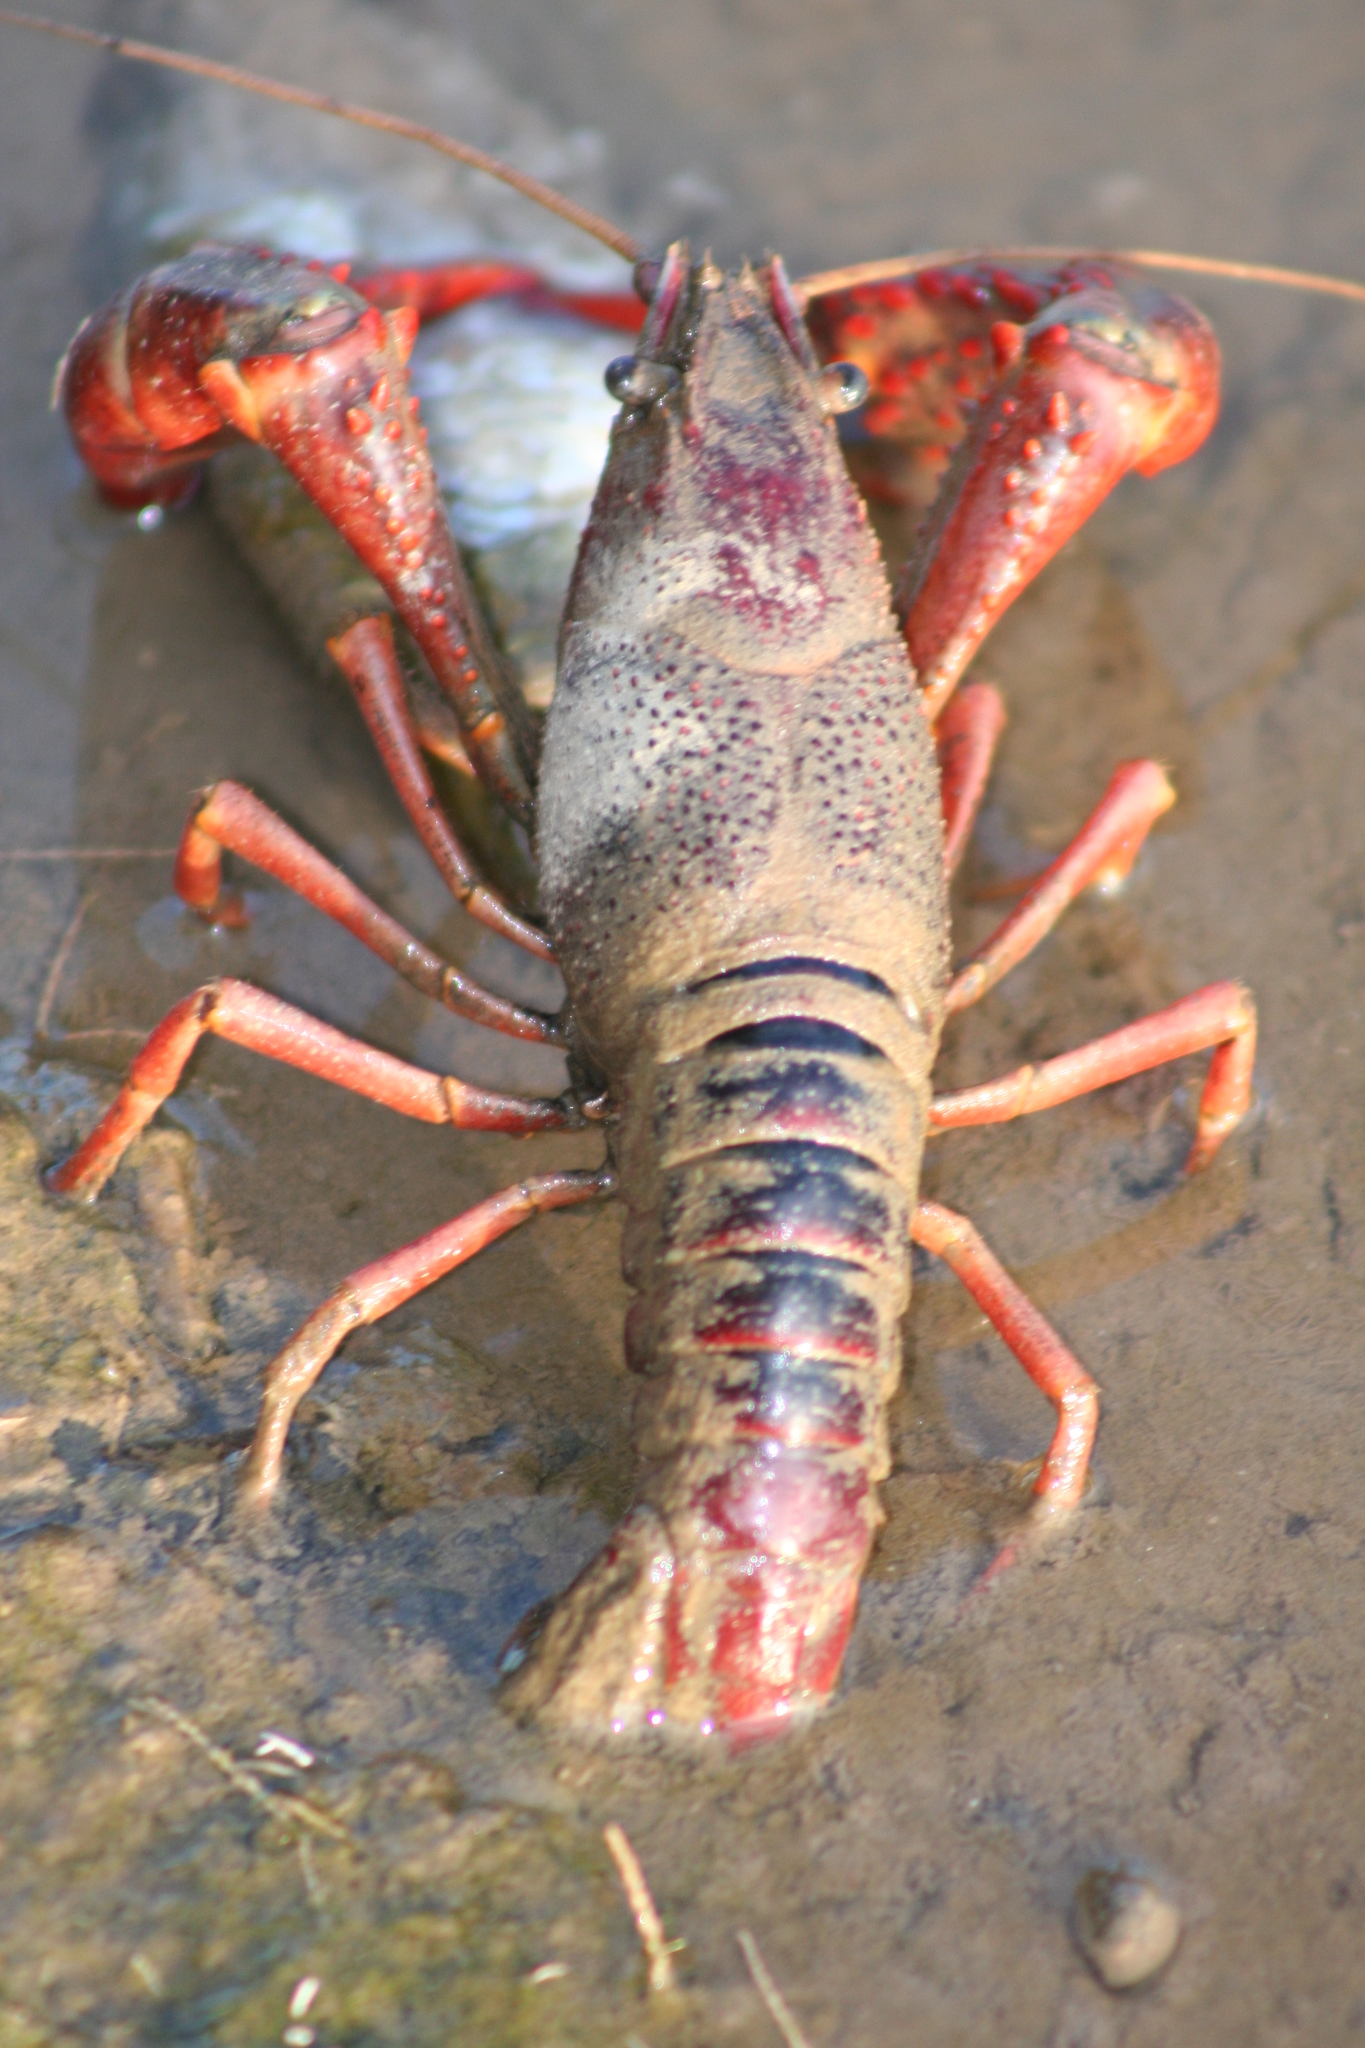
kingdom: Animalia
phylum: Arthropoda
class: Malacostraca
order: Decapoda
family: Cambaridae
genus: Procambarus
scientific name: Procambarus clarkii
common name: Red swamp crayfish
